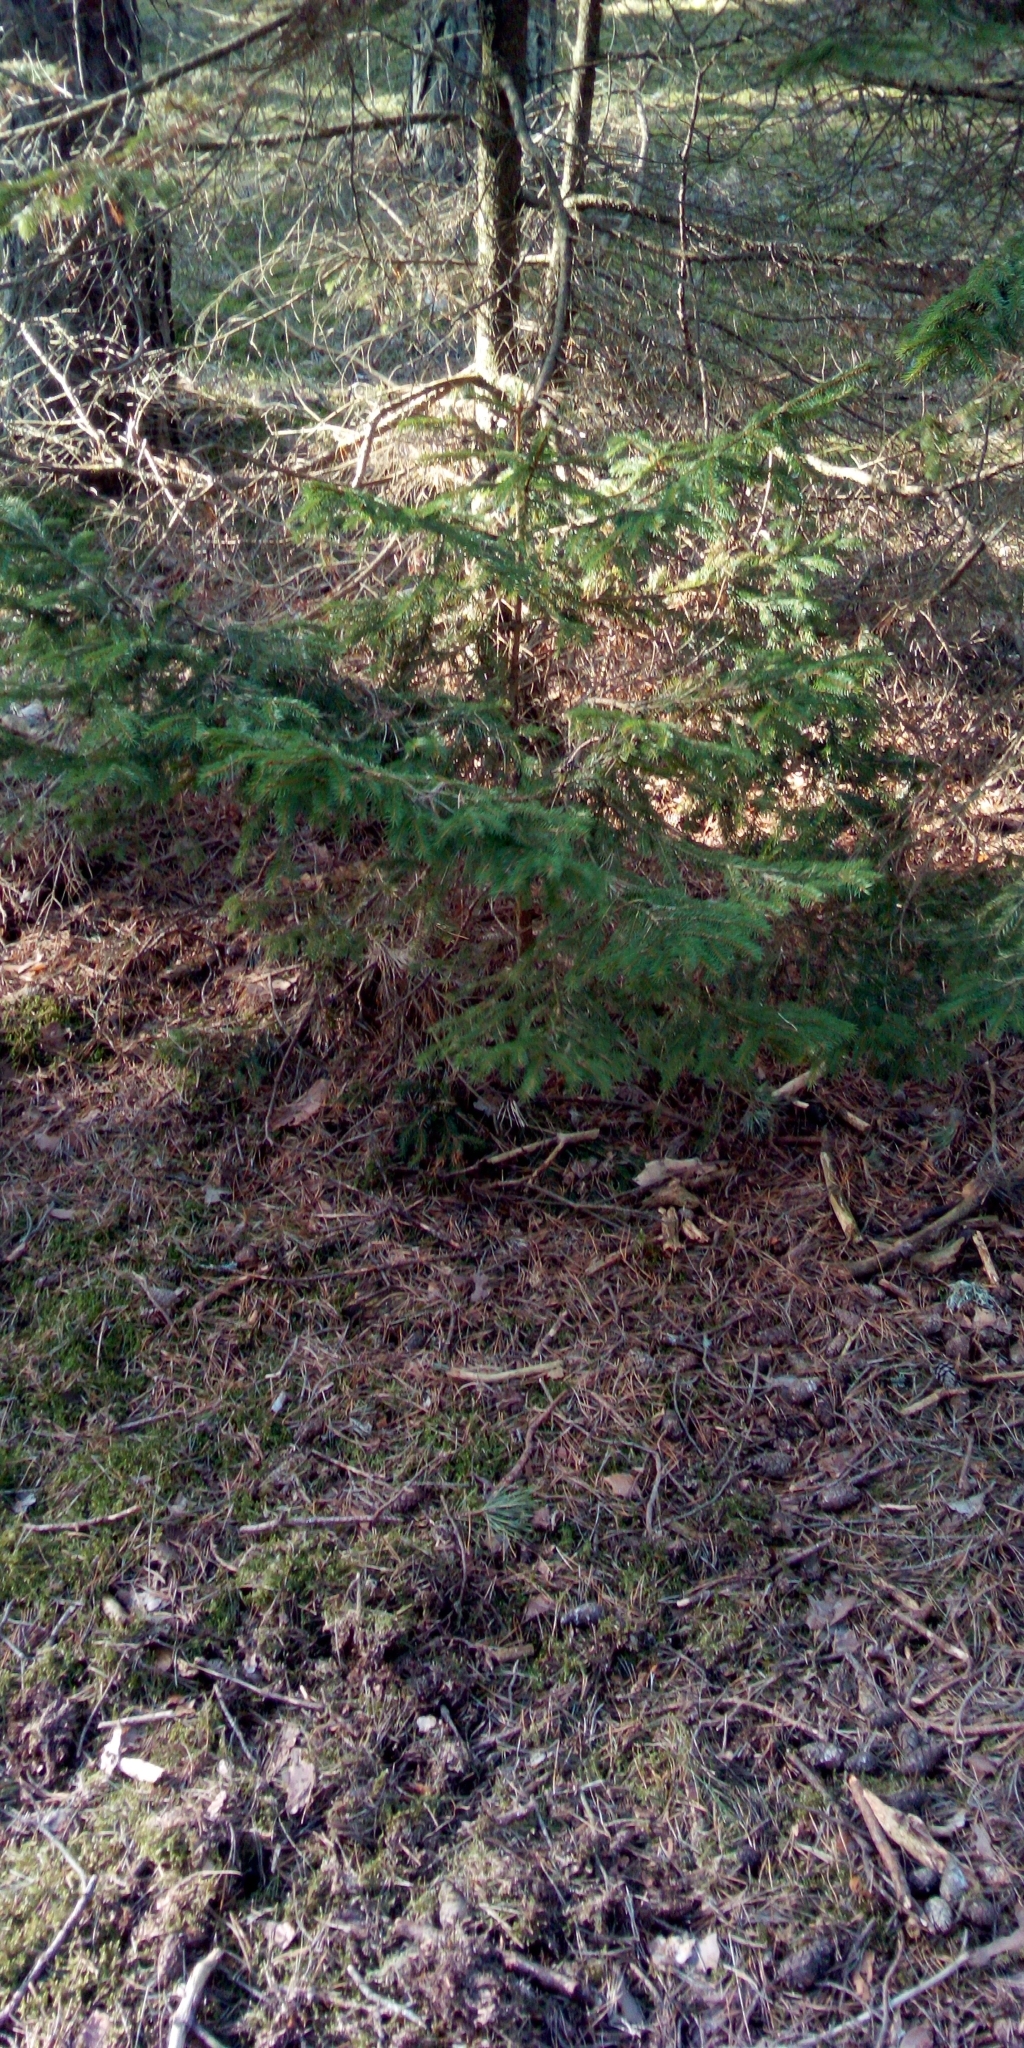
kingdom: Plantae
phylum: Tracheophyta
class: Pinopsida
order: Pinales
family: Pinaceae
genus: Picea
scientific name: Picea abies
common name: Norway spruce
